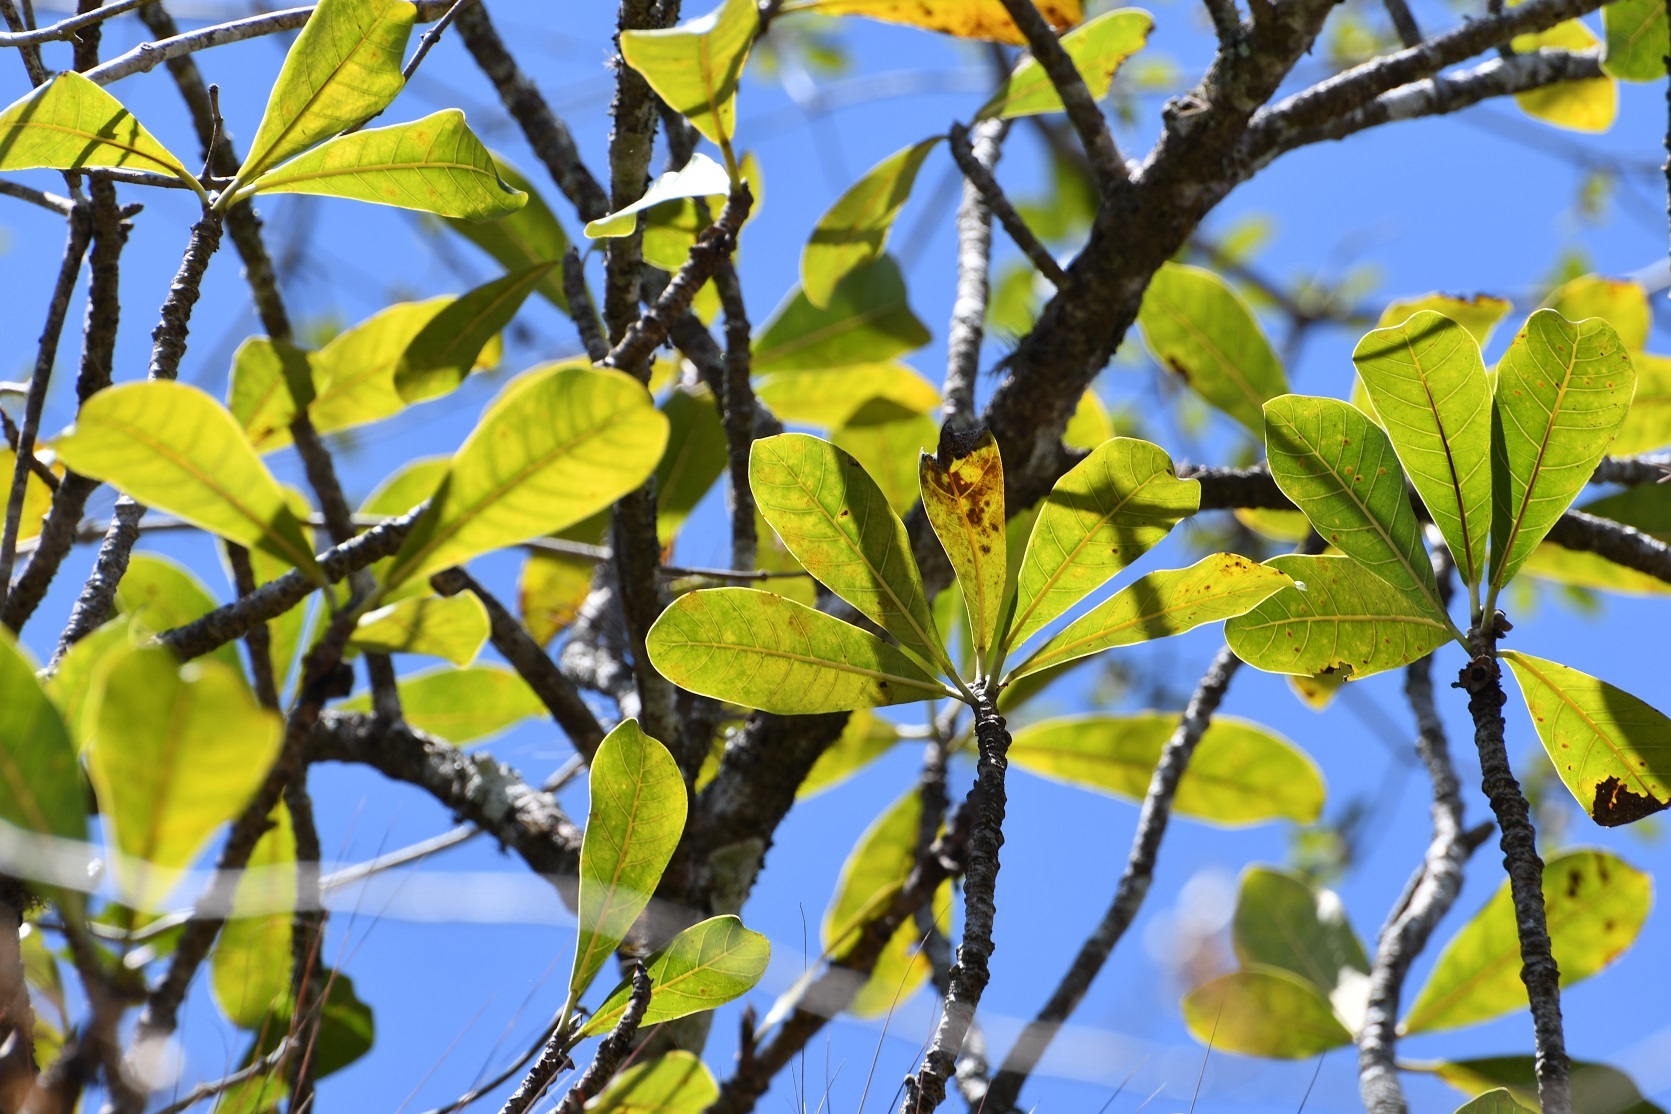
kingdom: Plantae
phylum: Tracheophyta
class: Magnoliopsida
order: Rosales
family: Moraceae
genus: Ficus
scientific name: Ficus obtusifolia
